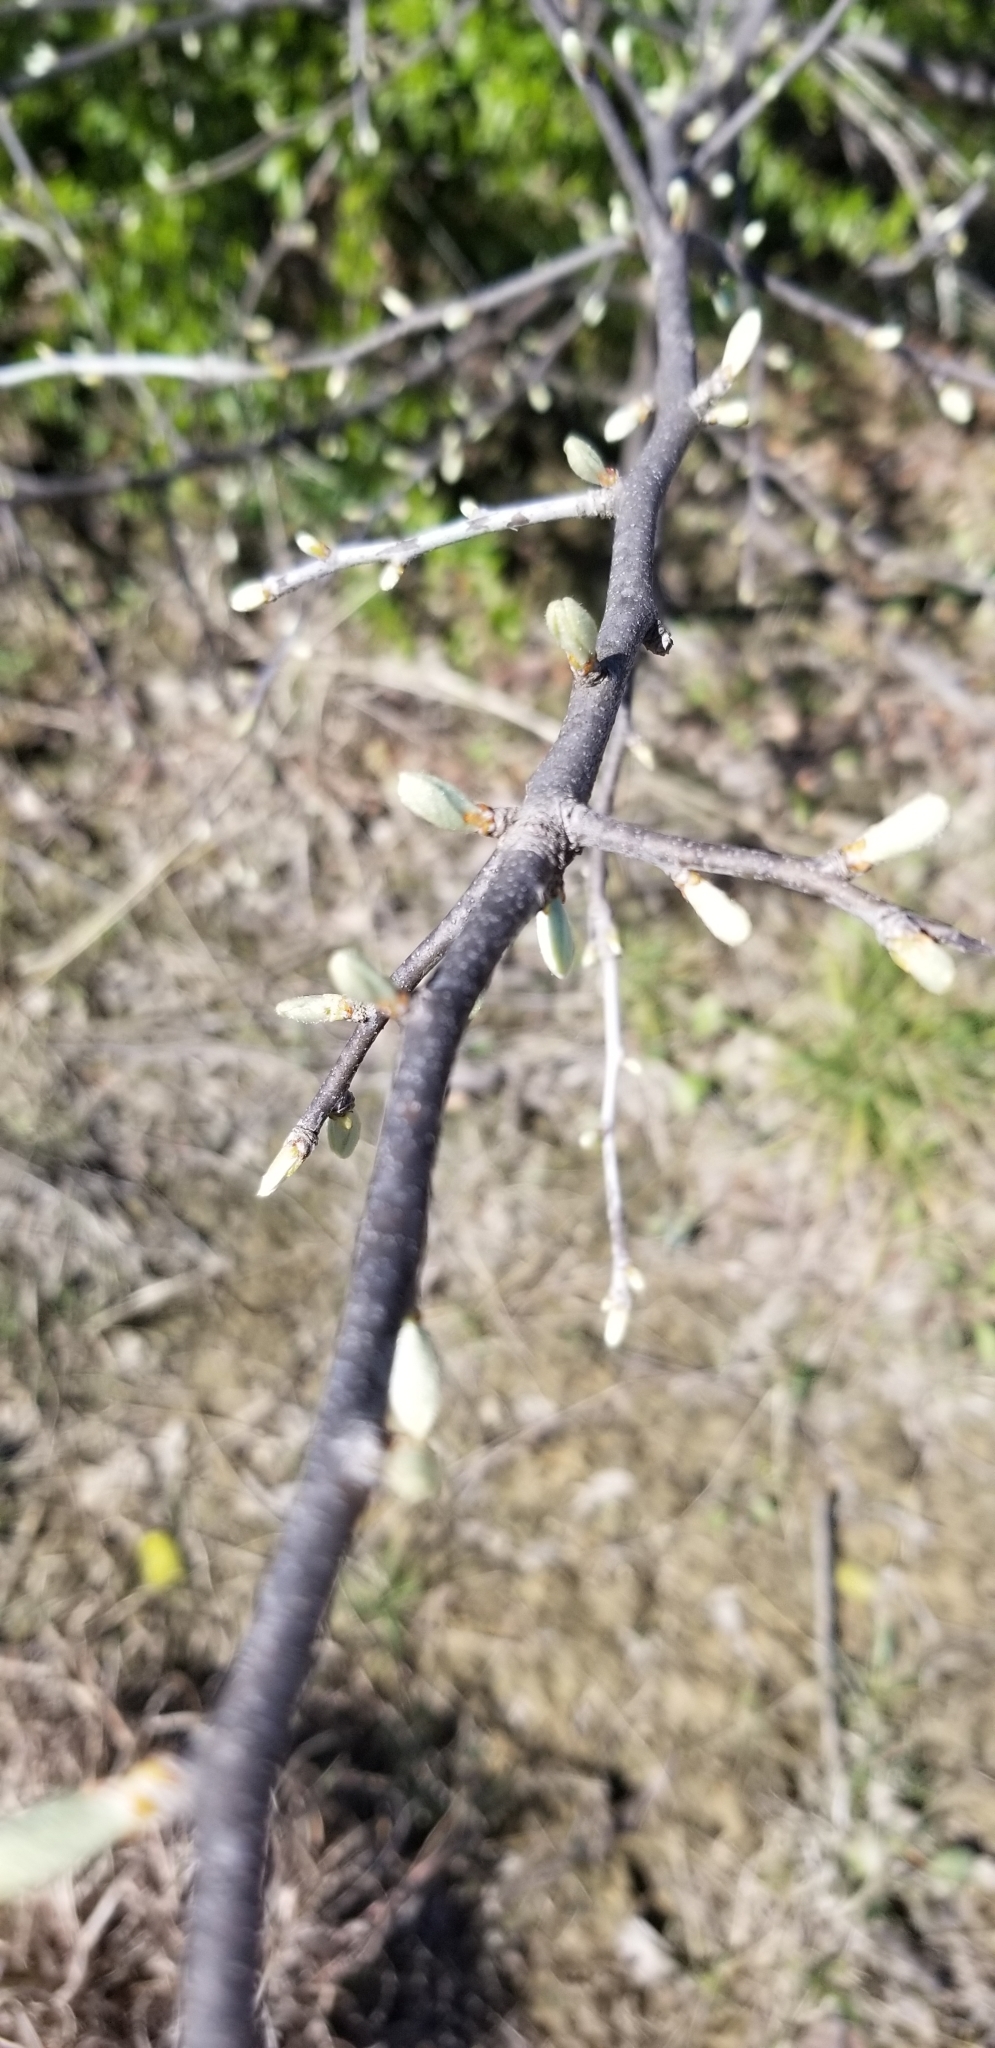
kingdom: Plantae
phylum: Tracheophyta
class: Magnoliopsida
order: Ericales
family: Sapotaceae
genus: Sideroxylon
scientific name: Sideroxylon lanuginosum
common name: Chittamwood
